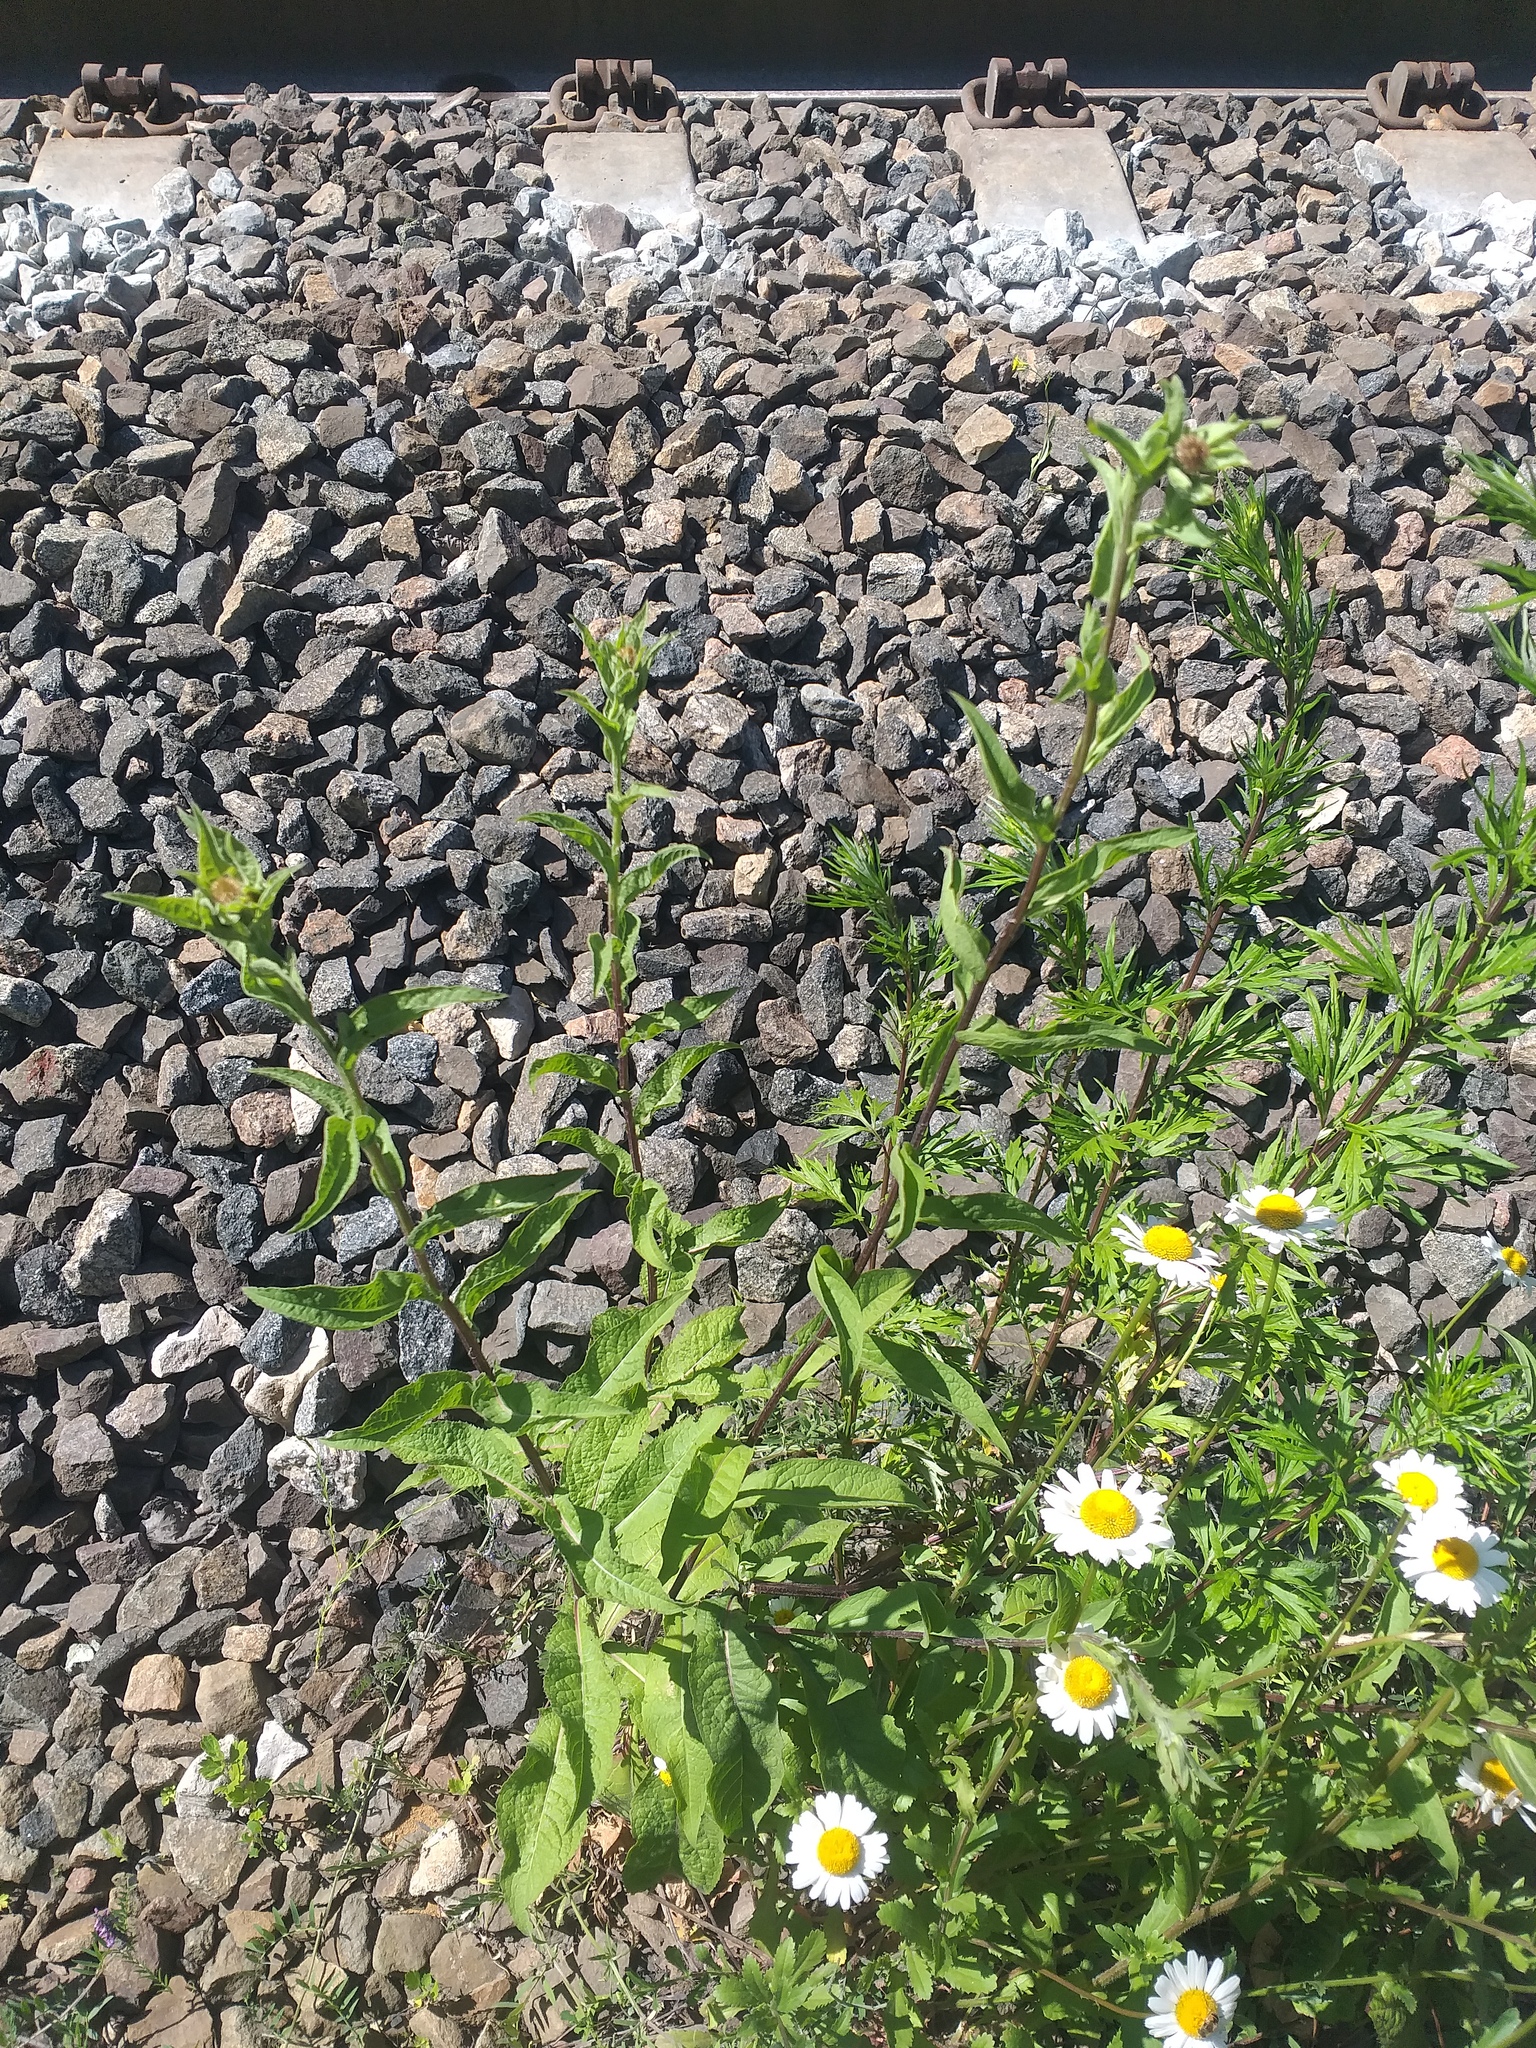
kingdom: Plantae
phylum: Tracheophyta
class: Magnoliopsida
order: Asterales
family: Asteraceae
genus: Centaurea
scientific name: Centaurea pseudophrygia
